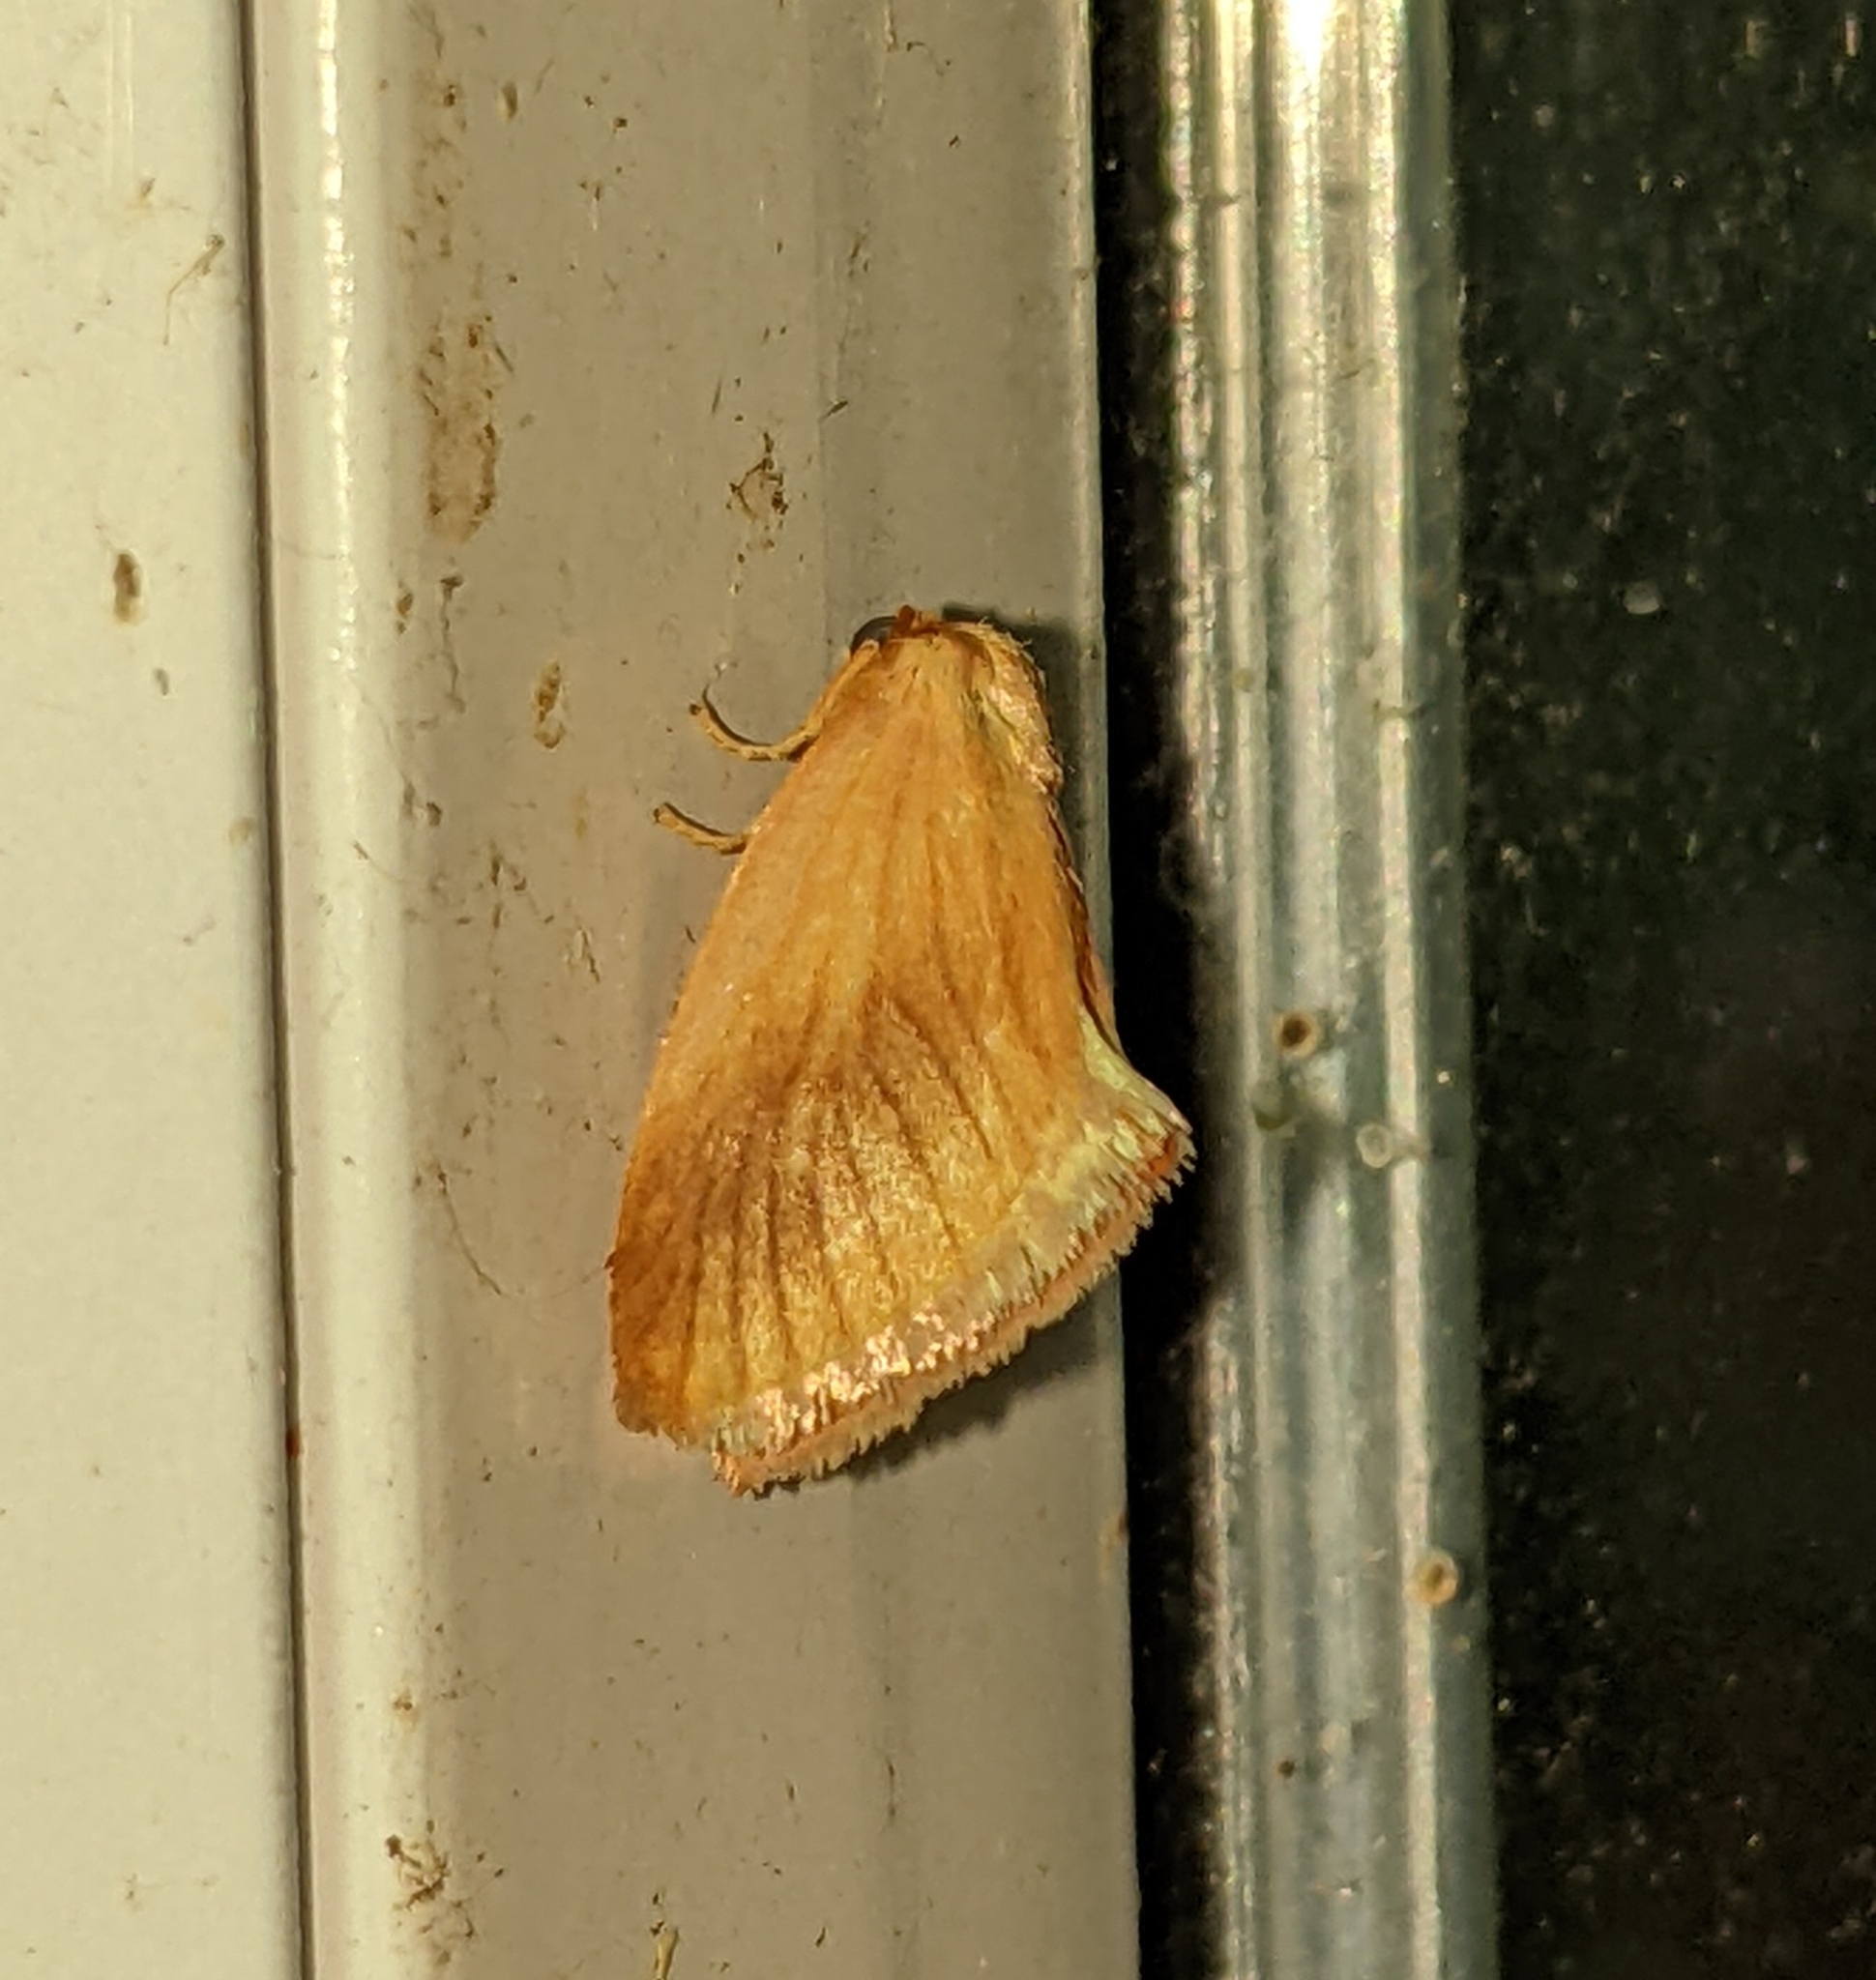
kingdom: Animalia
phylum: Arthropoda
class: Insecta
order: Lepidoptera
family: Limacodidae
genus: Tortricidia
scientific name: Tortricidia testacea
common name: Early button slug moth
